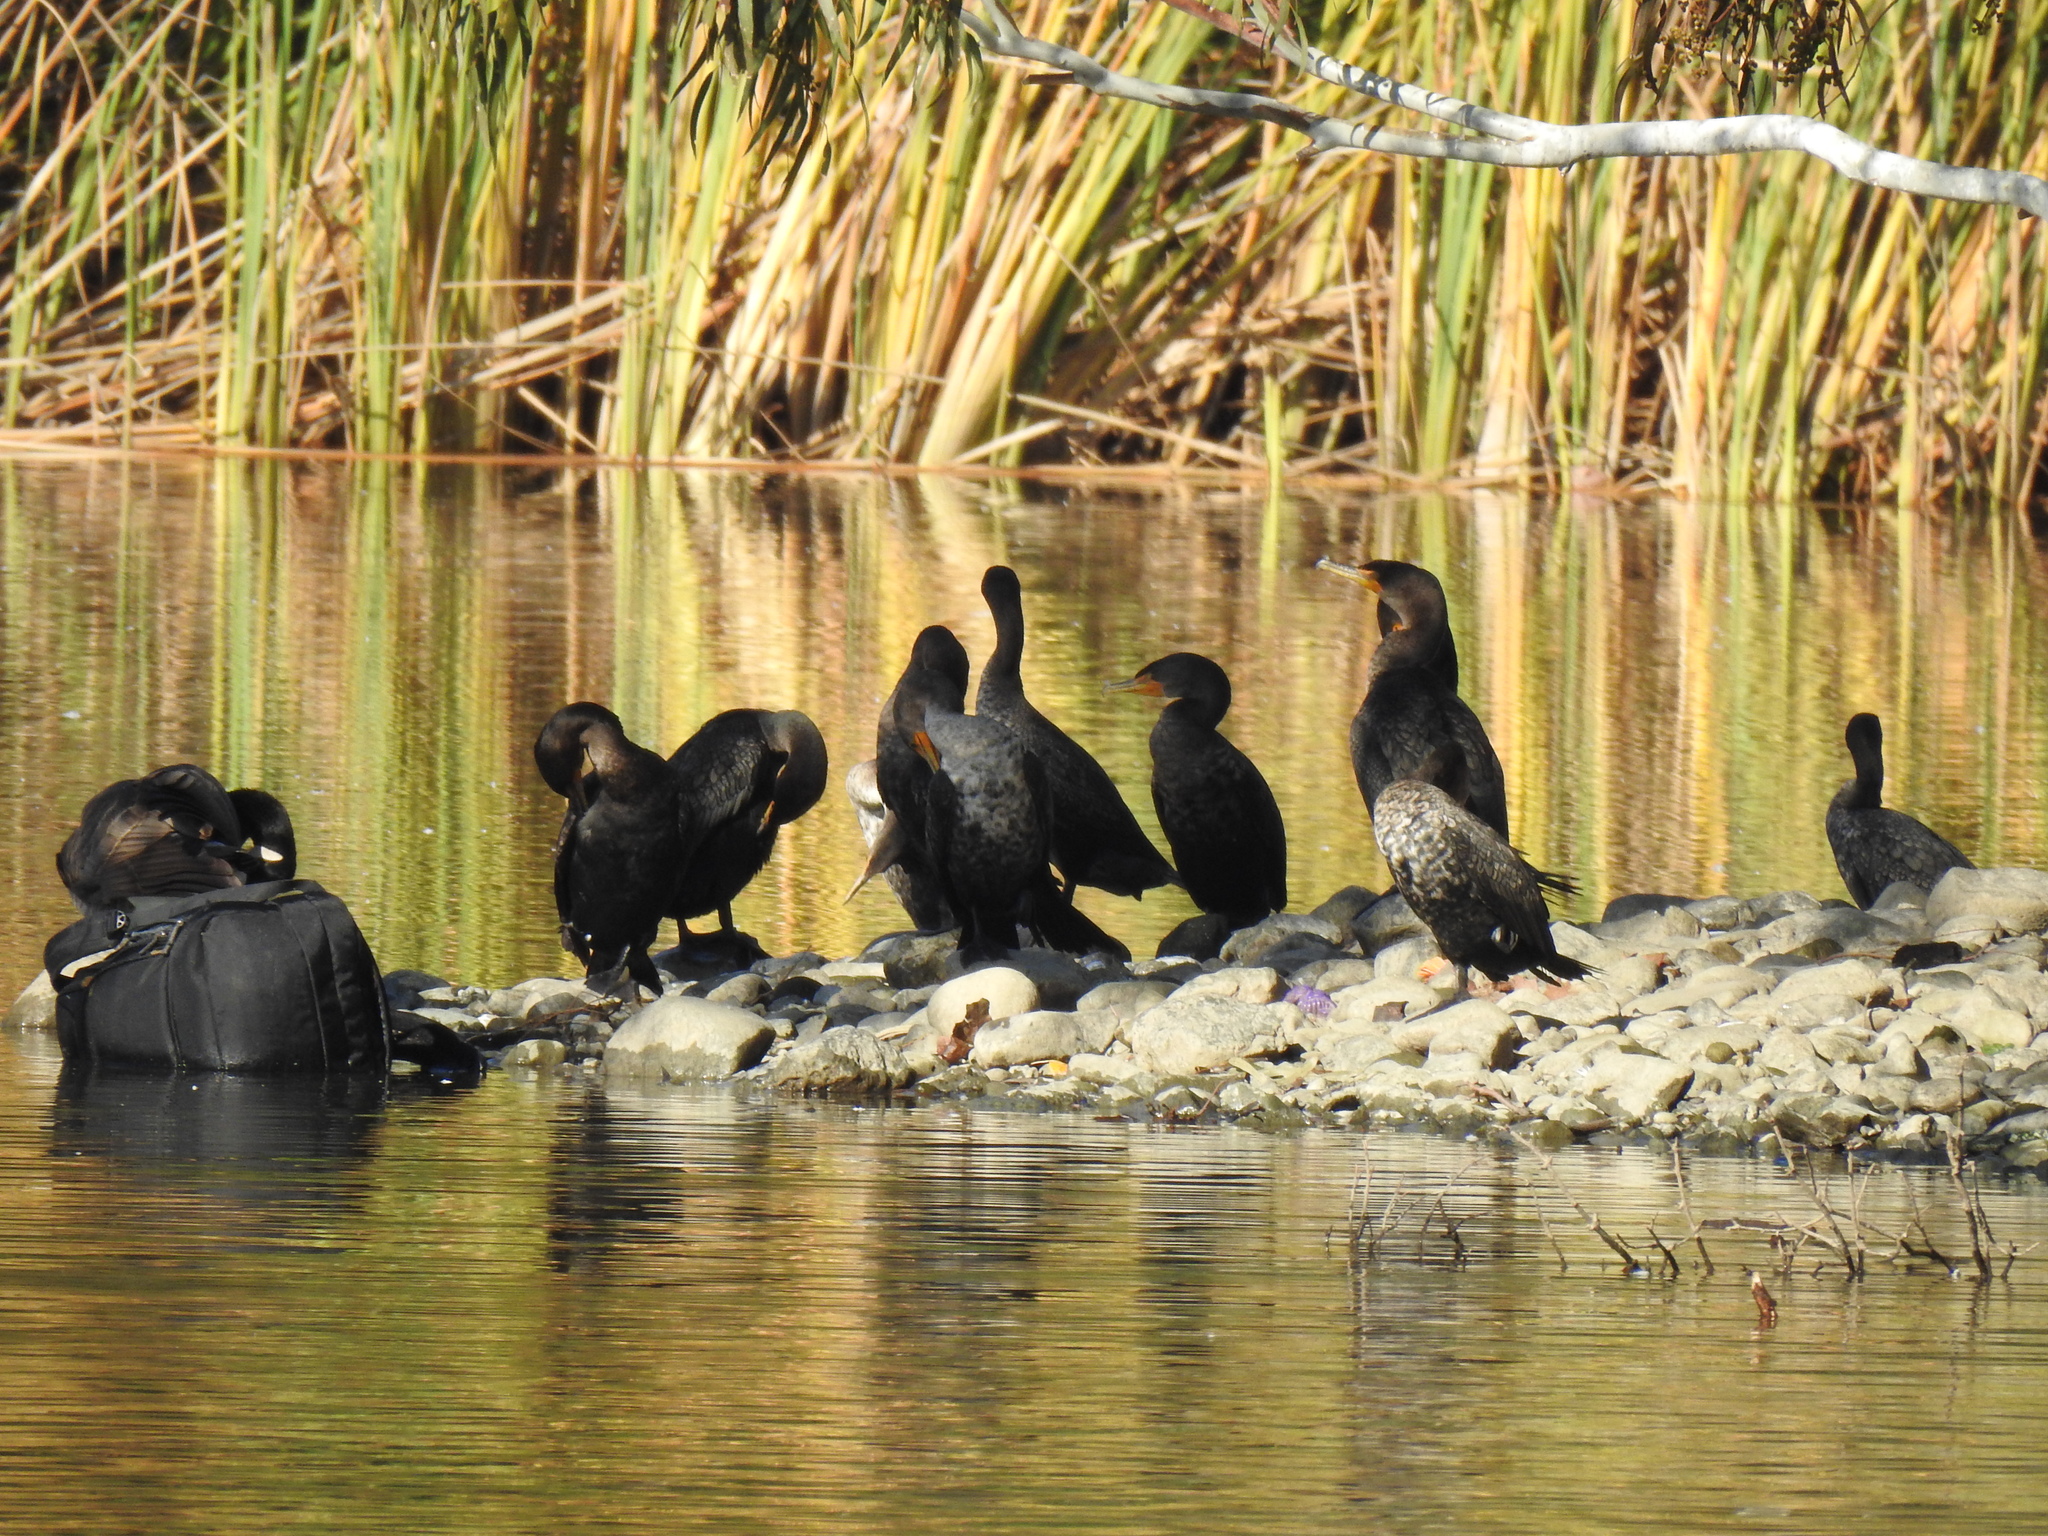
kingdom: Animalia
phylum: Chordata
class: Aves
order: Suliformes
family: Phalacrocoracidae
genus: Phalacrocorax
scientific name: Phalacrocorax auritus
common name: Double-crested cormorant
